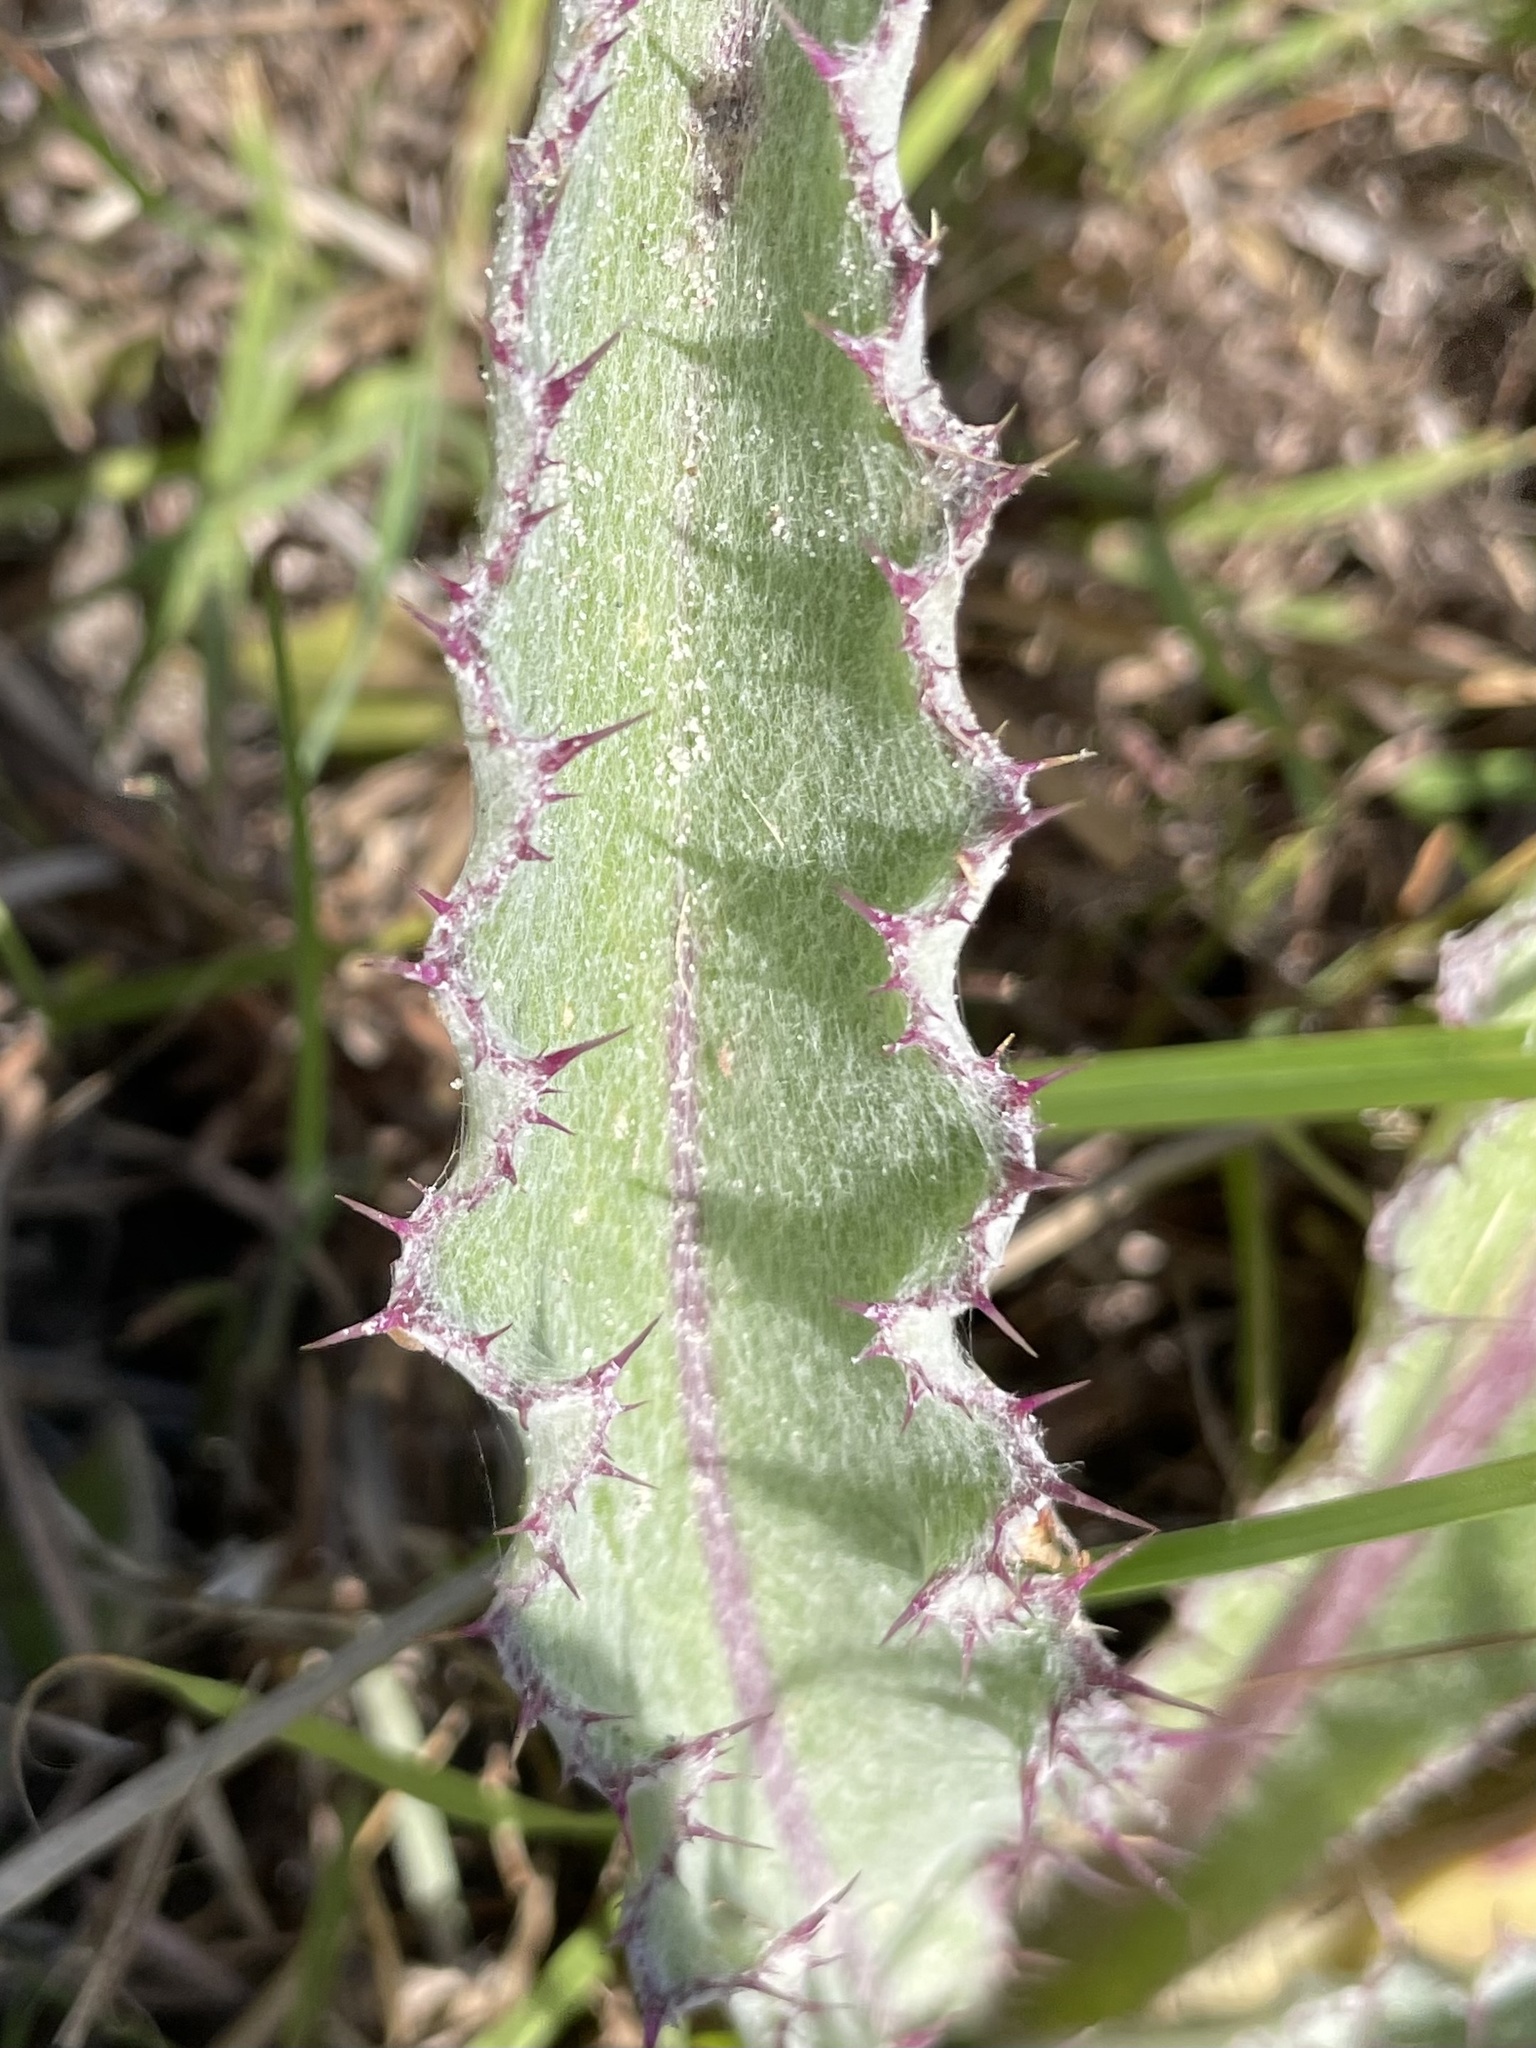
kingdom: Plantae
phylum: Tracheophyta
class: Magnoliopsida
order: Asterales
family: Asteraceae
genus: Cirsium
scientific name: Cirsium horridulum
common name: Bristly thistle
